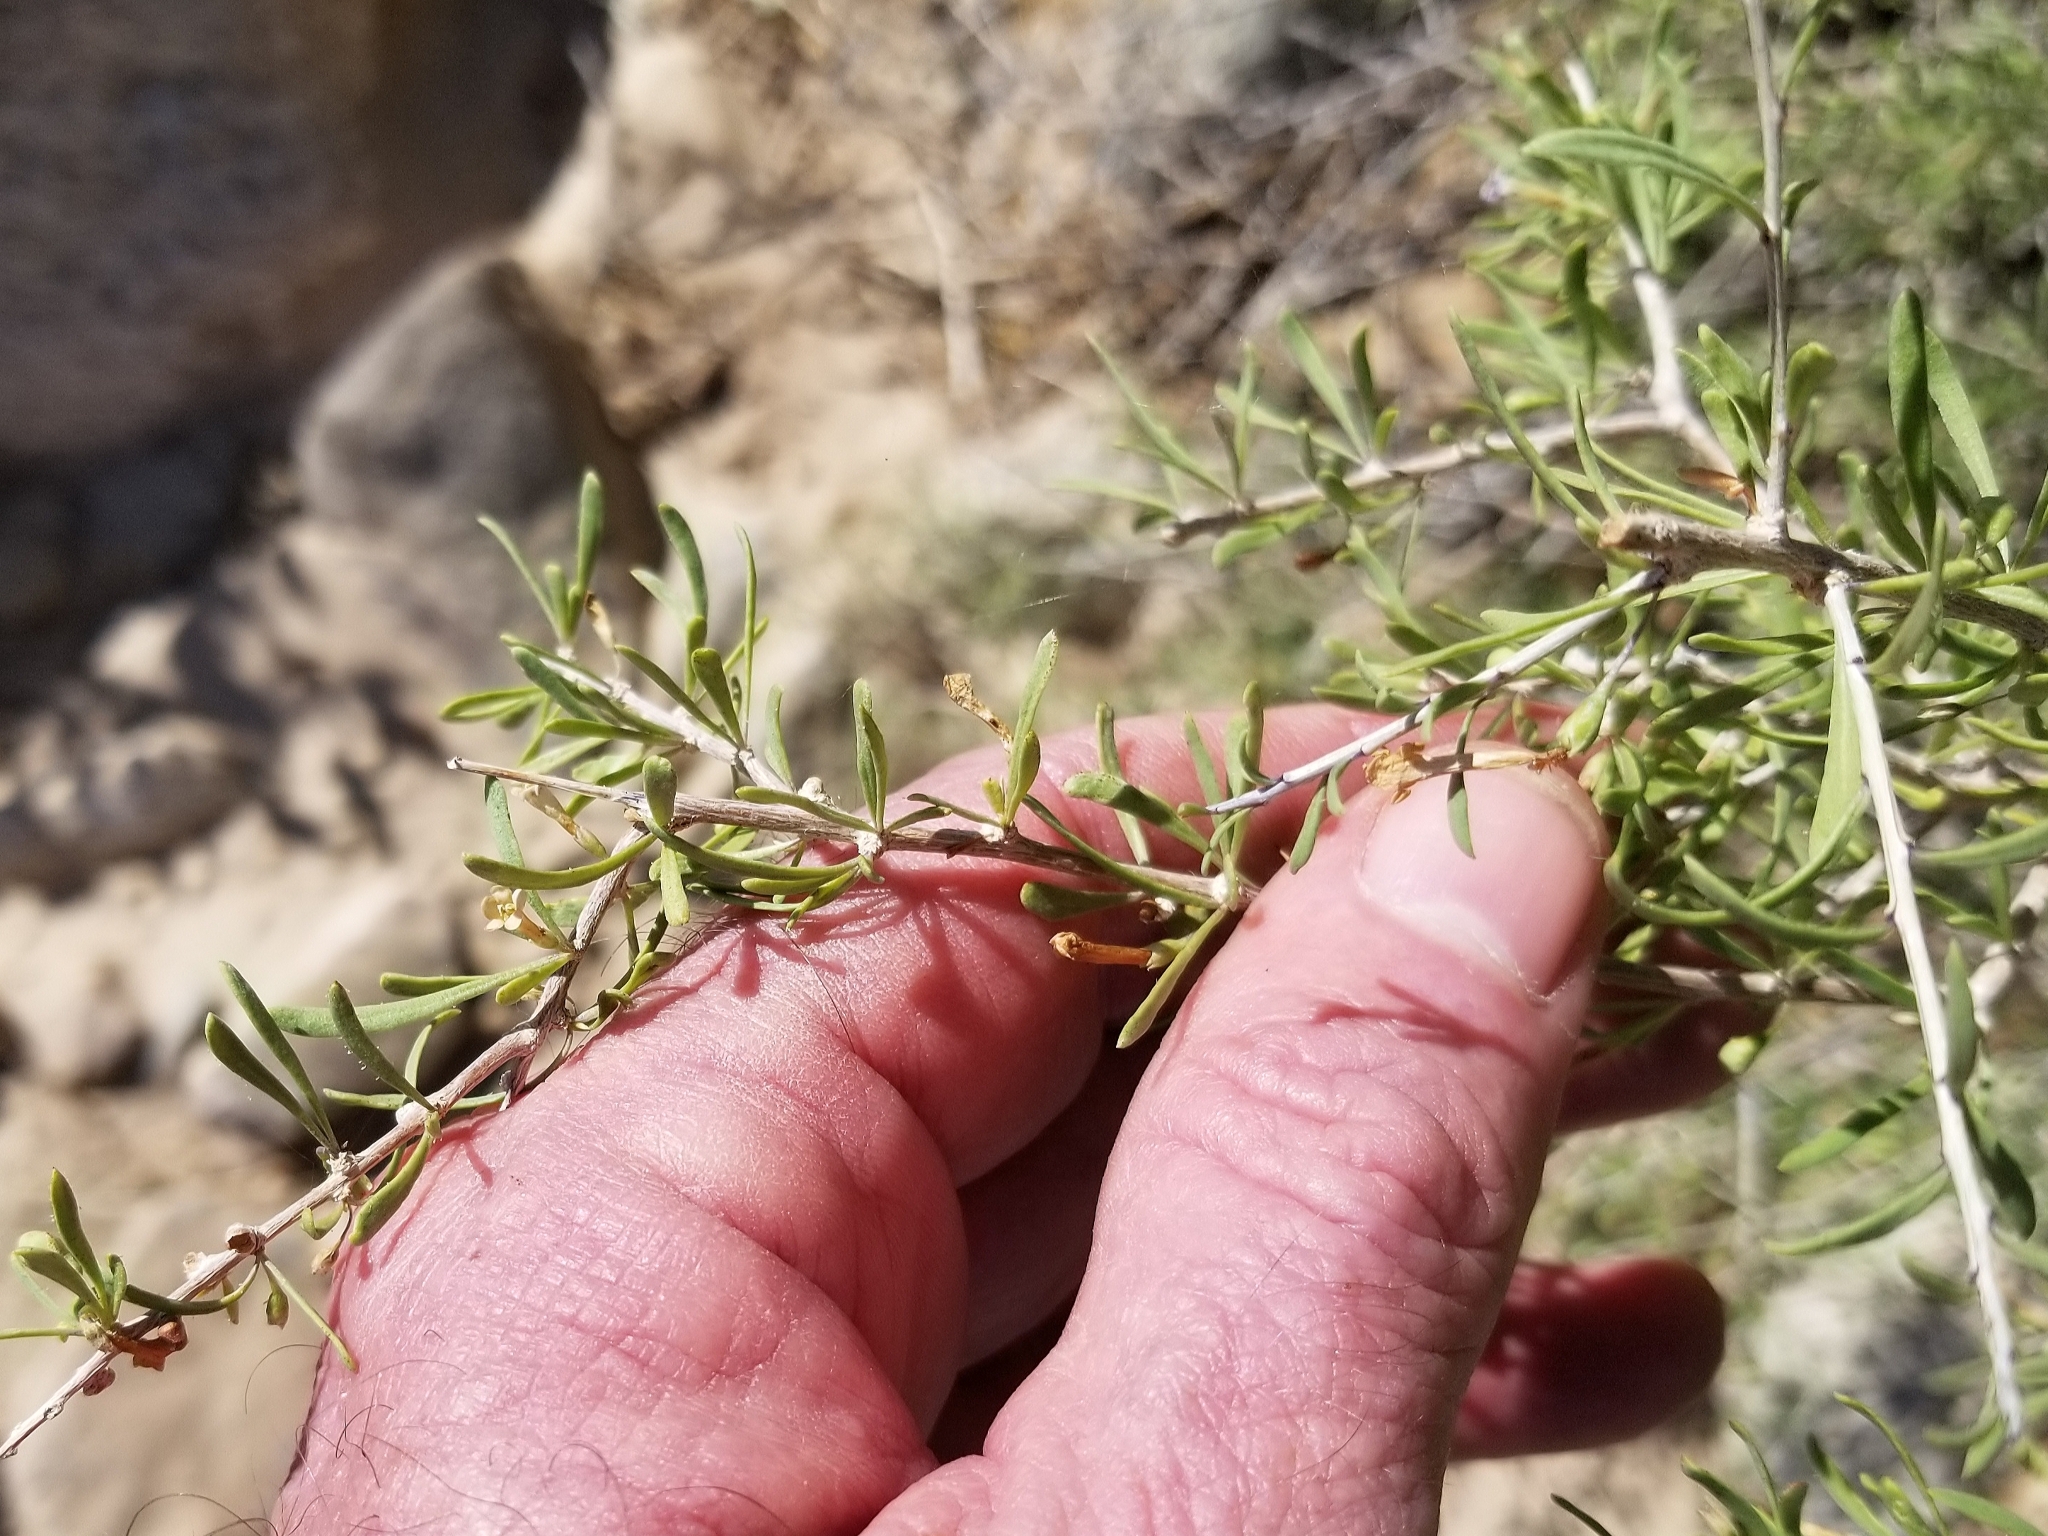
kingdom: Plantae
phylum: Tracheophyta
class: Magnoliopsida
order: Solanales
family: Solanaceae
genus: Lycium
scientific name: Lycium andersonii
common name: Water-jacket
